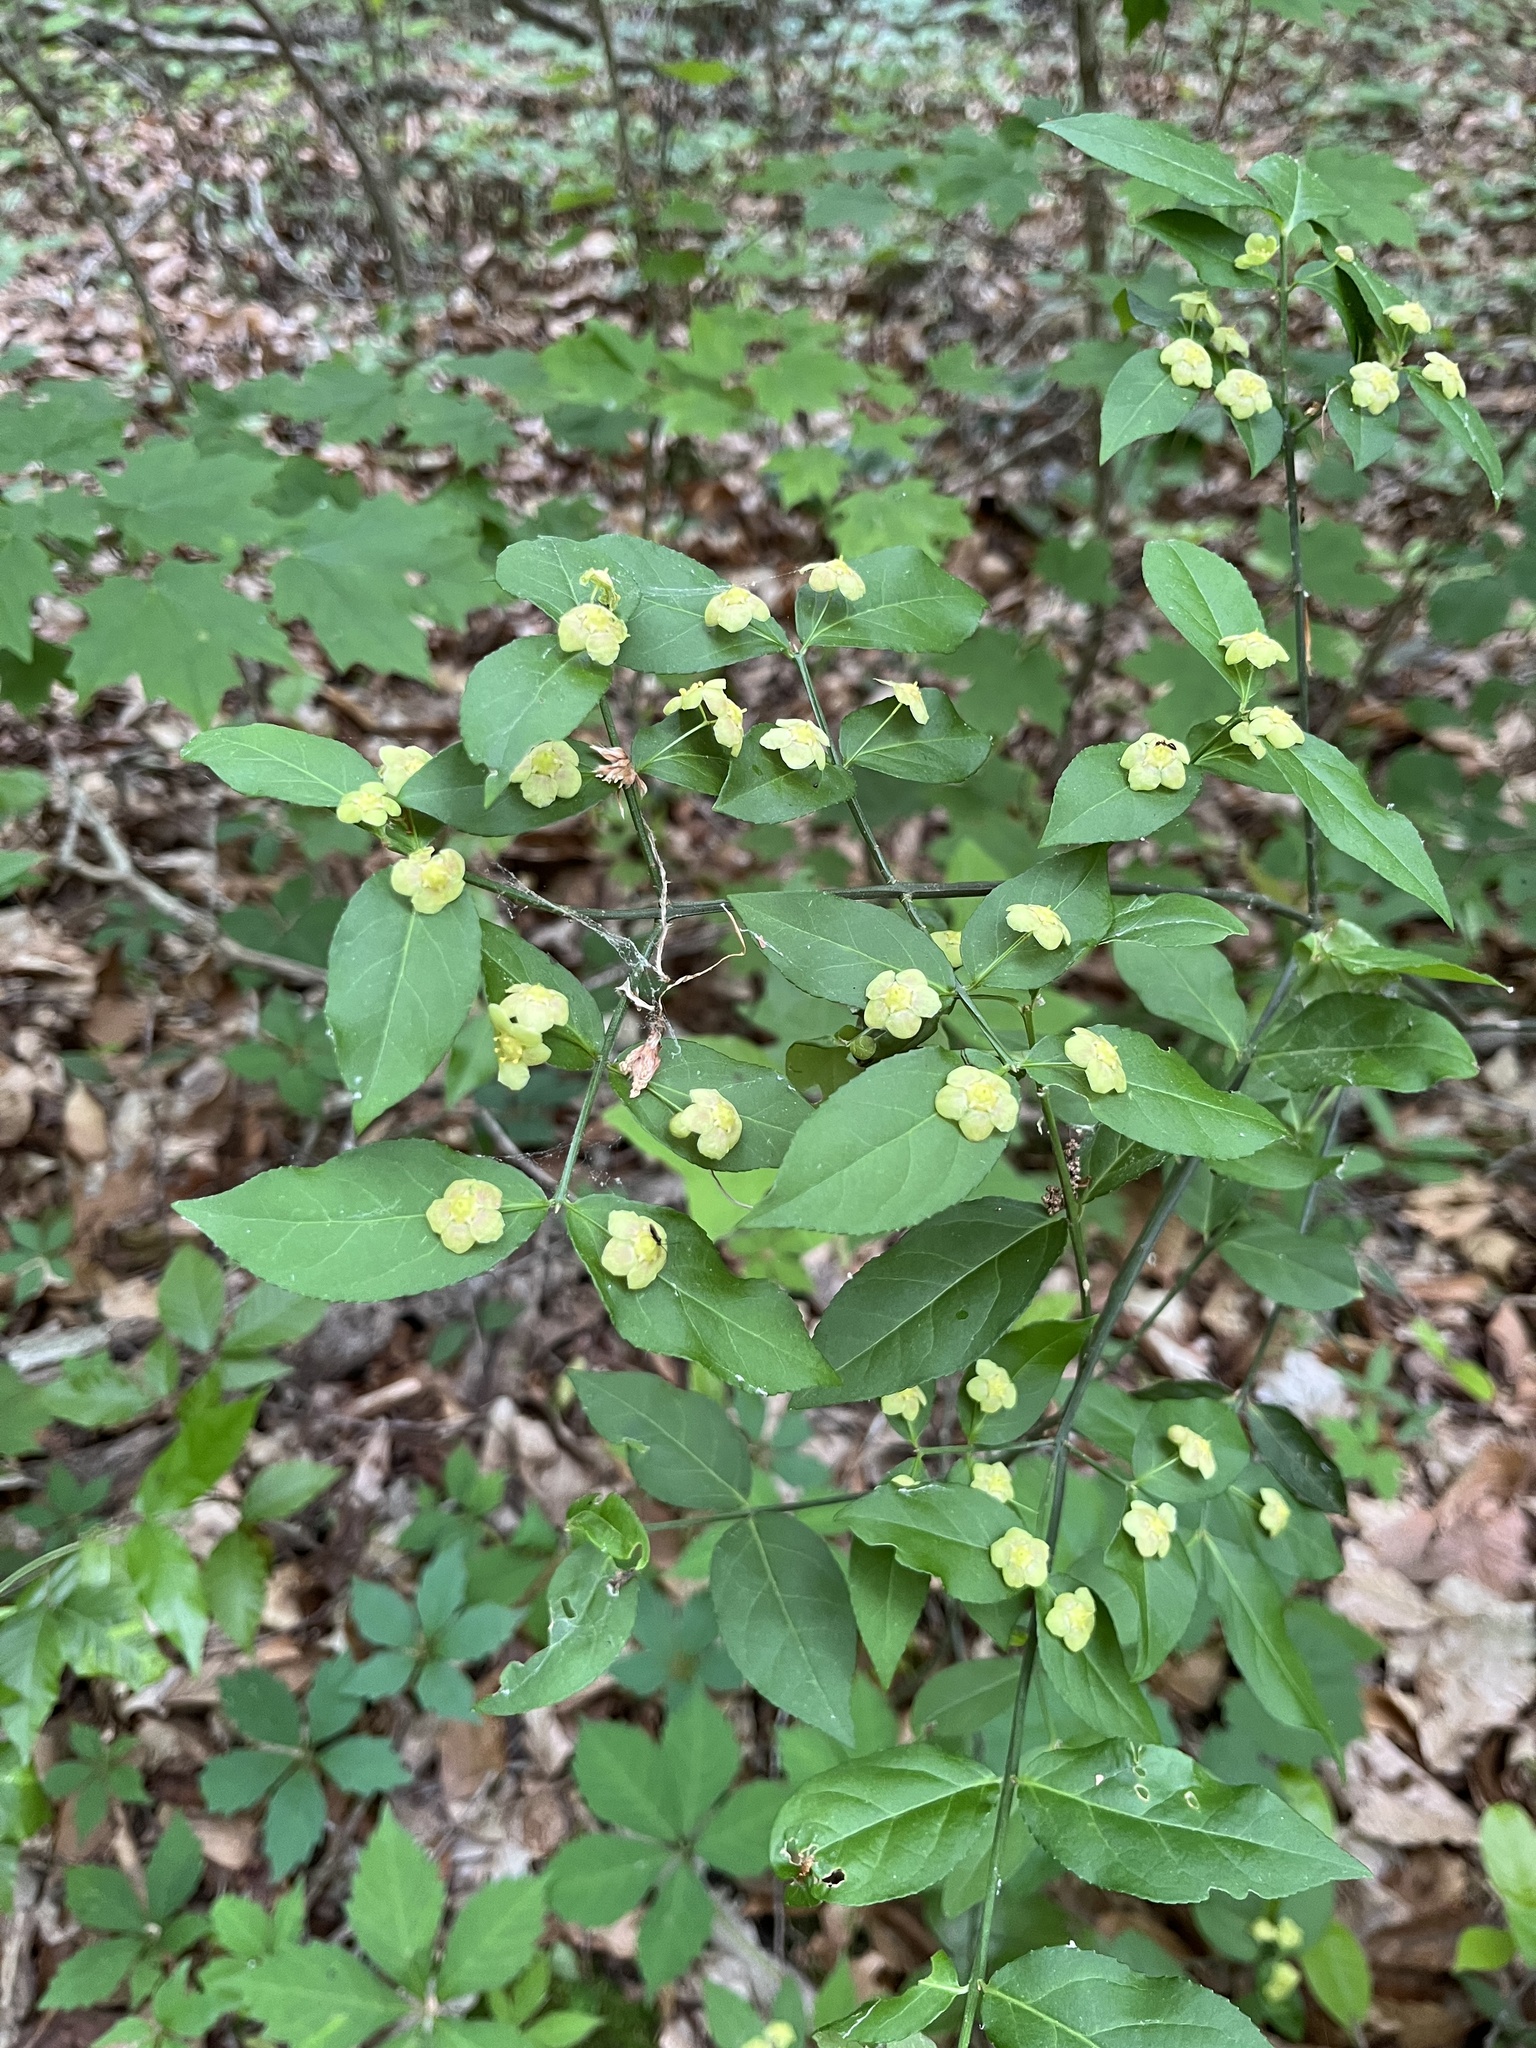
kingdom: Plantae
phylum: Tracheophyta
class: Magnoliopsida
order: Celastrales
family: Celastraceae
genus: Euonymus
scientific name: Euonymus americanus
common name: Bursting-heart
